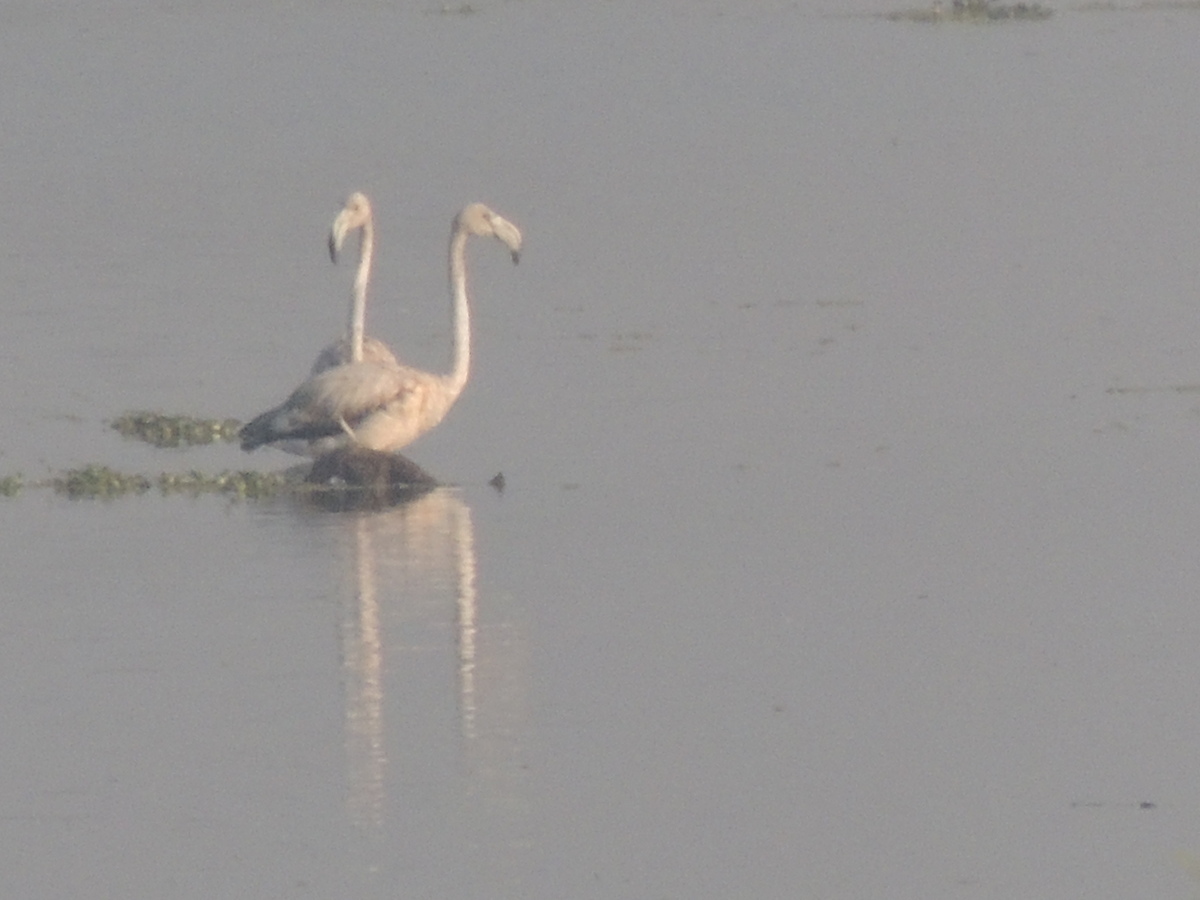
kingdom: Animalia
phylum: Chordata
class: Aves
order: Phoenicopteriformes
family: Phoenicopteridae
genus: Phoenicopterus
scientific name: Phoenicopterus roseus
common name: Greater flamingo
